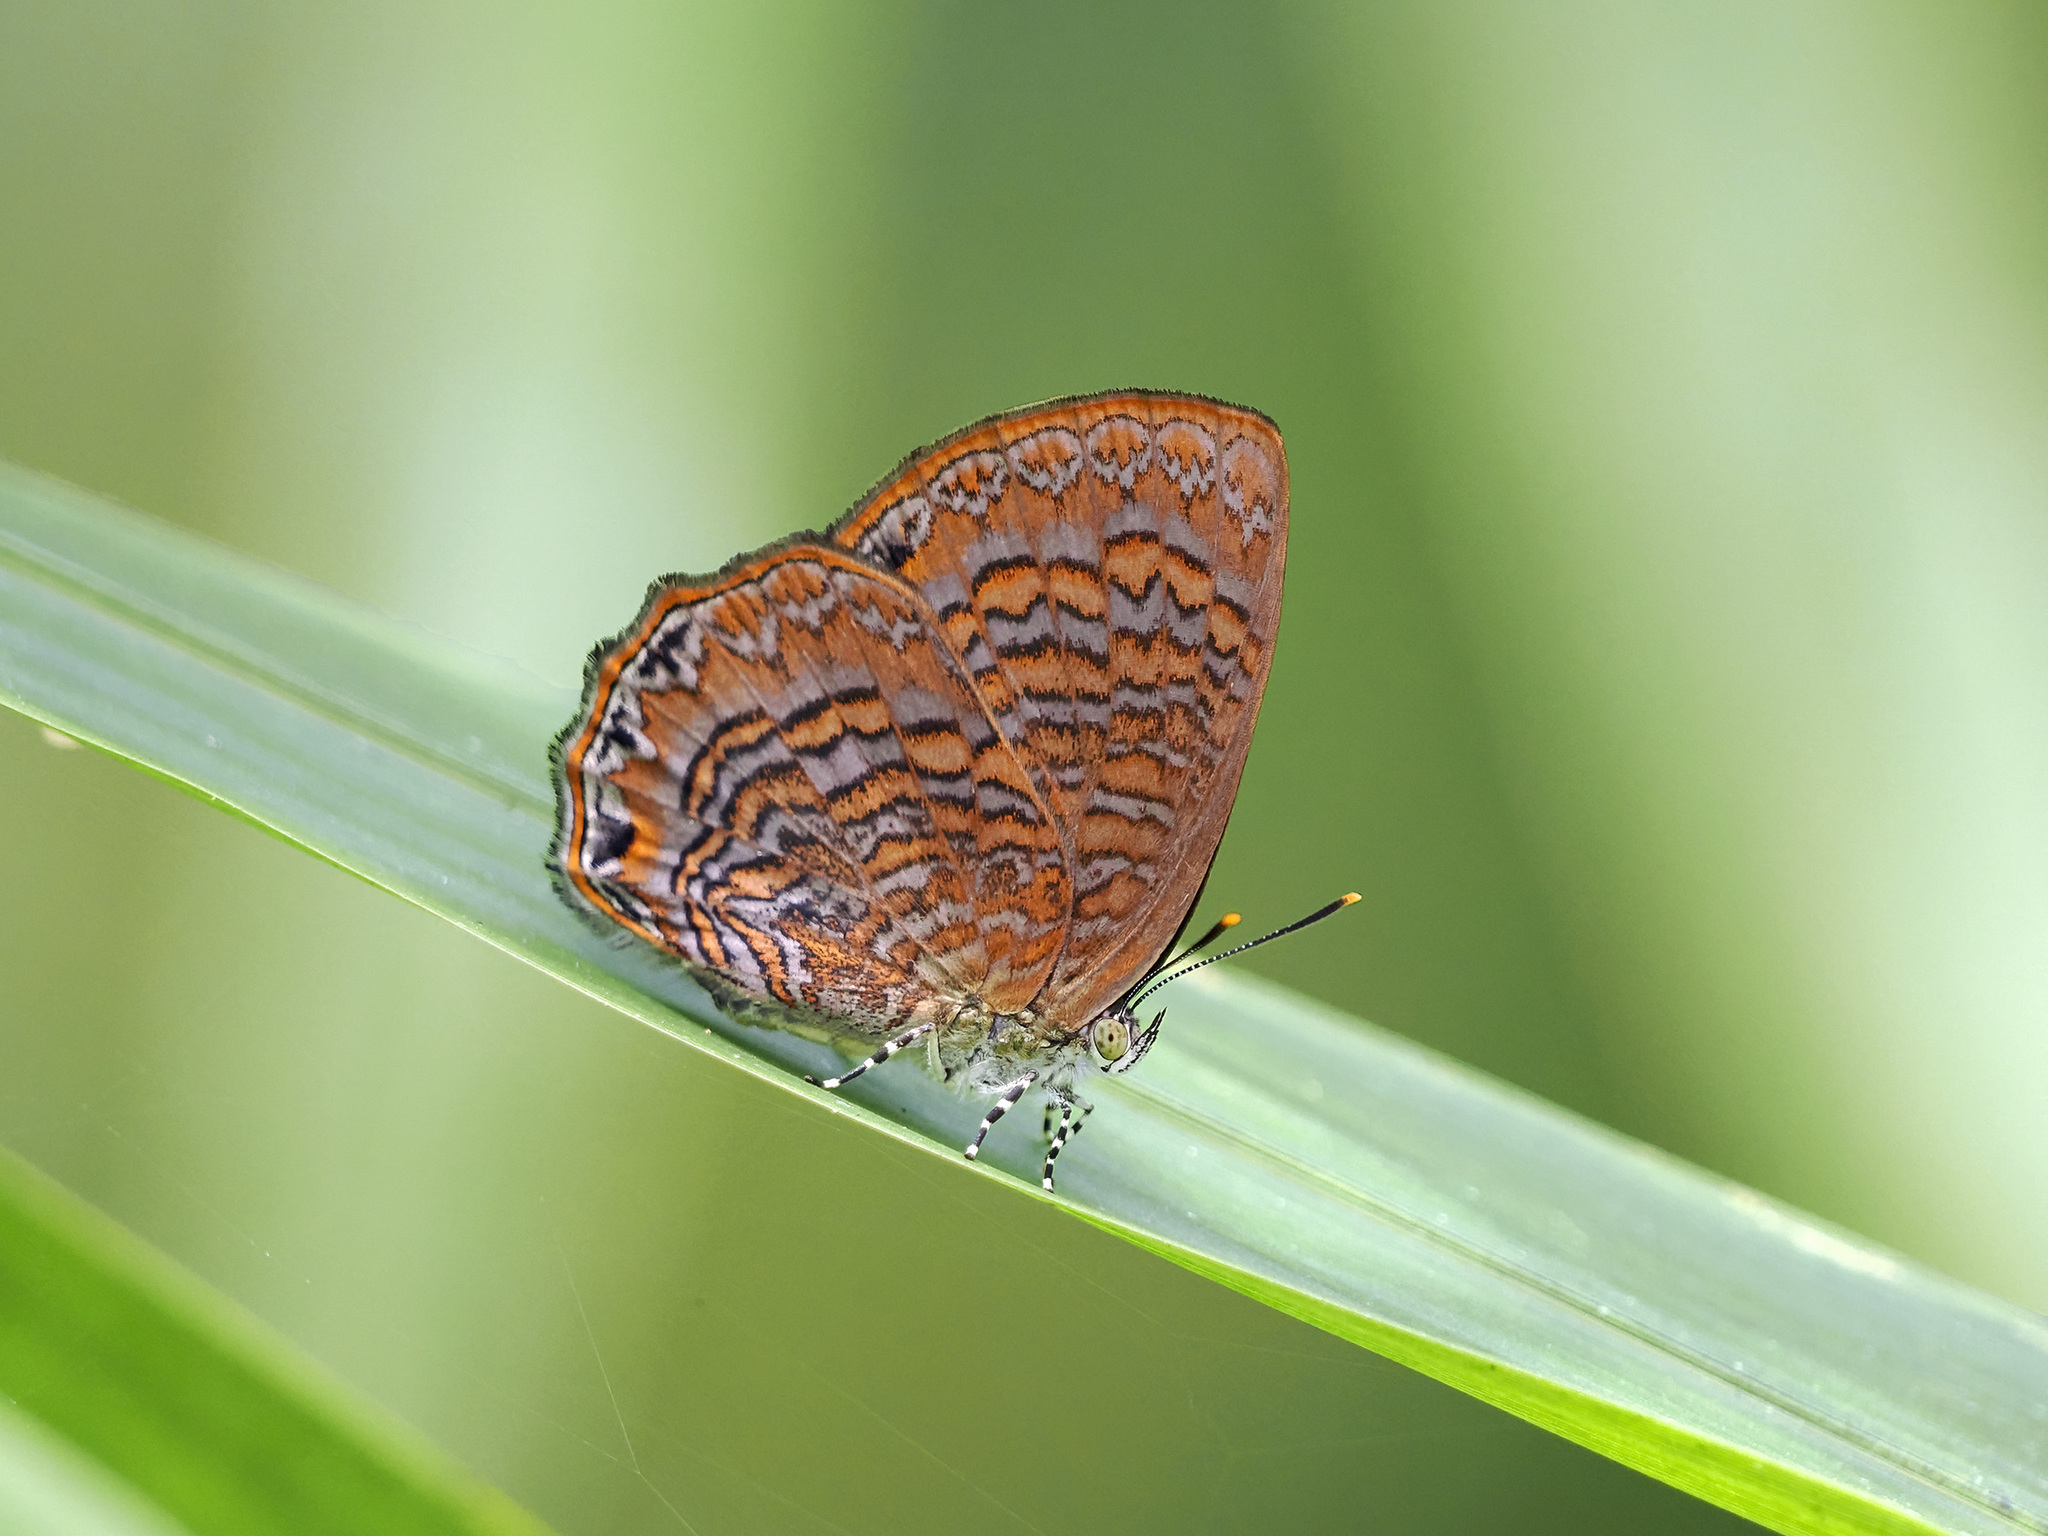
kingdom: Animalia
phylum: Arthropoda
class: Insecta
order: Lepidoptera
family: Lycaenidae
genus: Poritia
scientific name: Poritia sumatrae
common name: Sumatran gem
